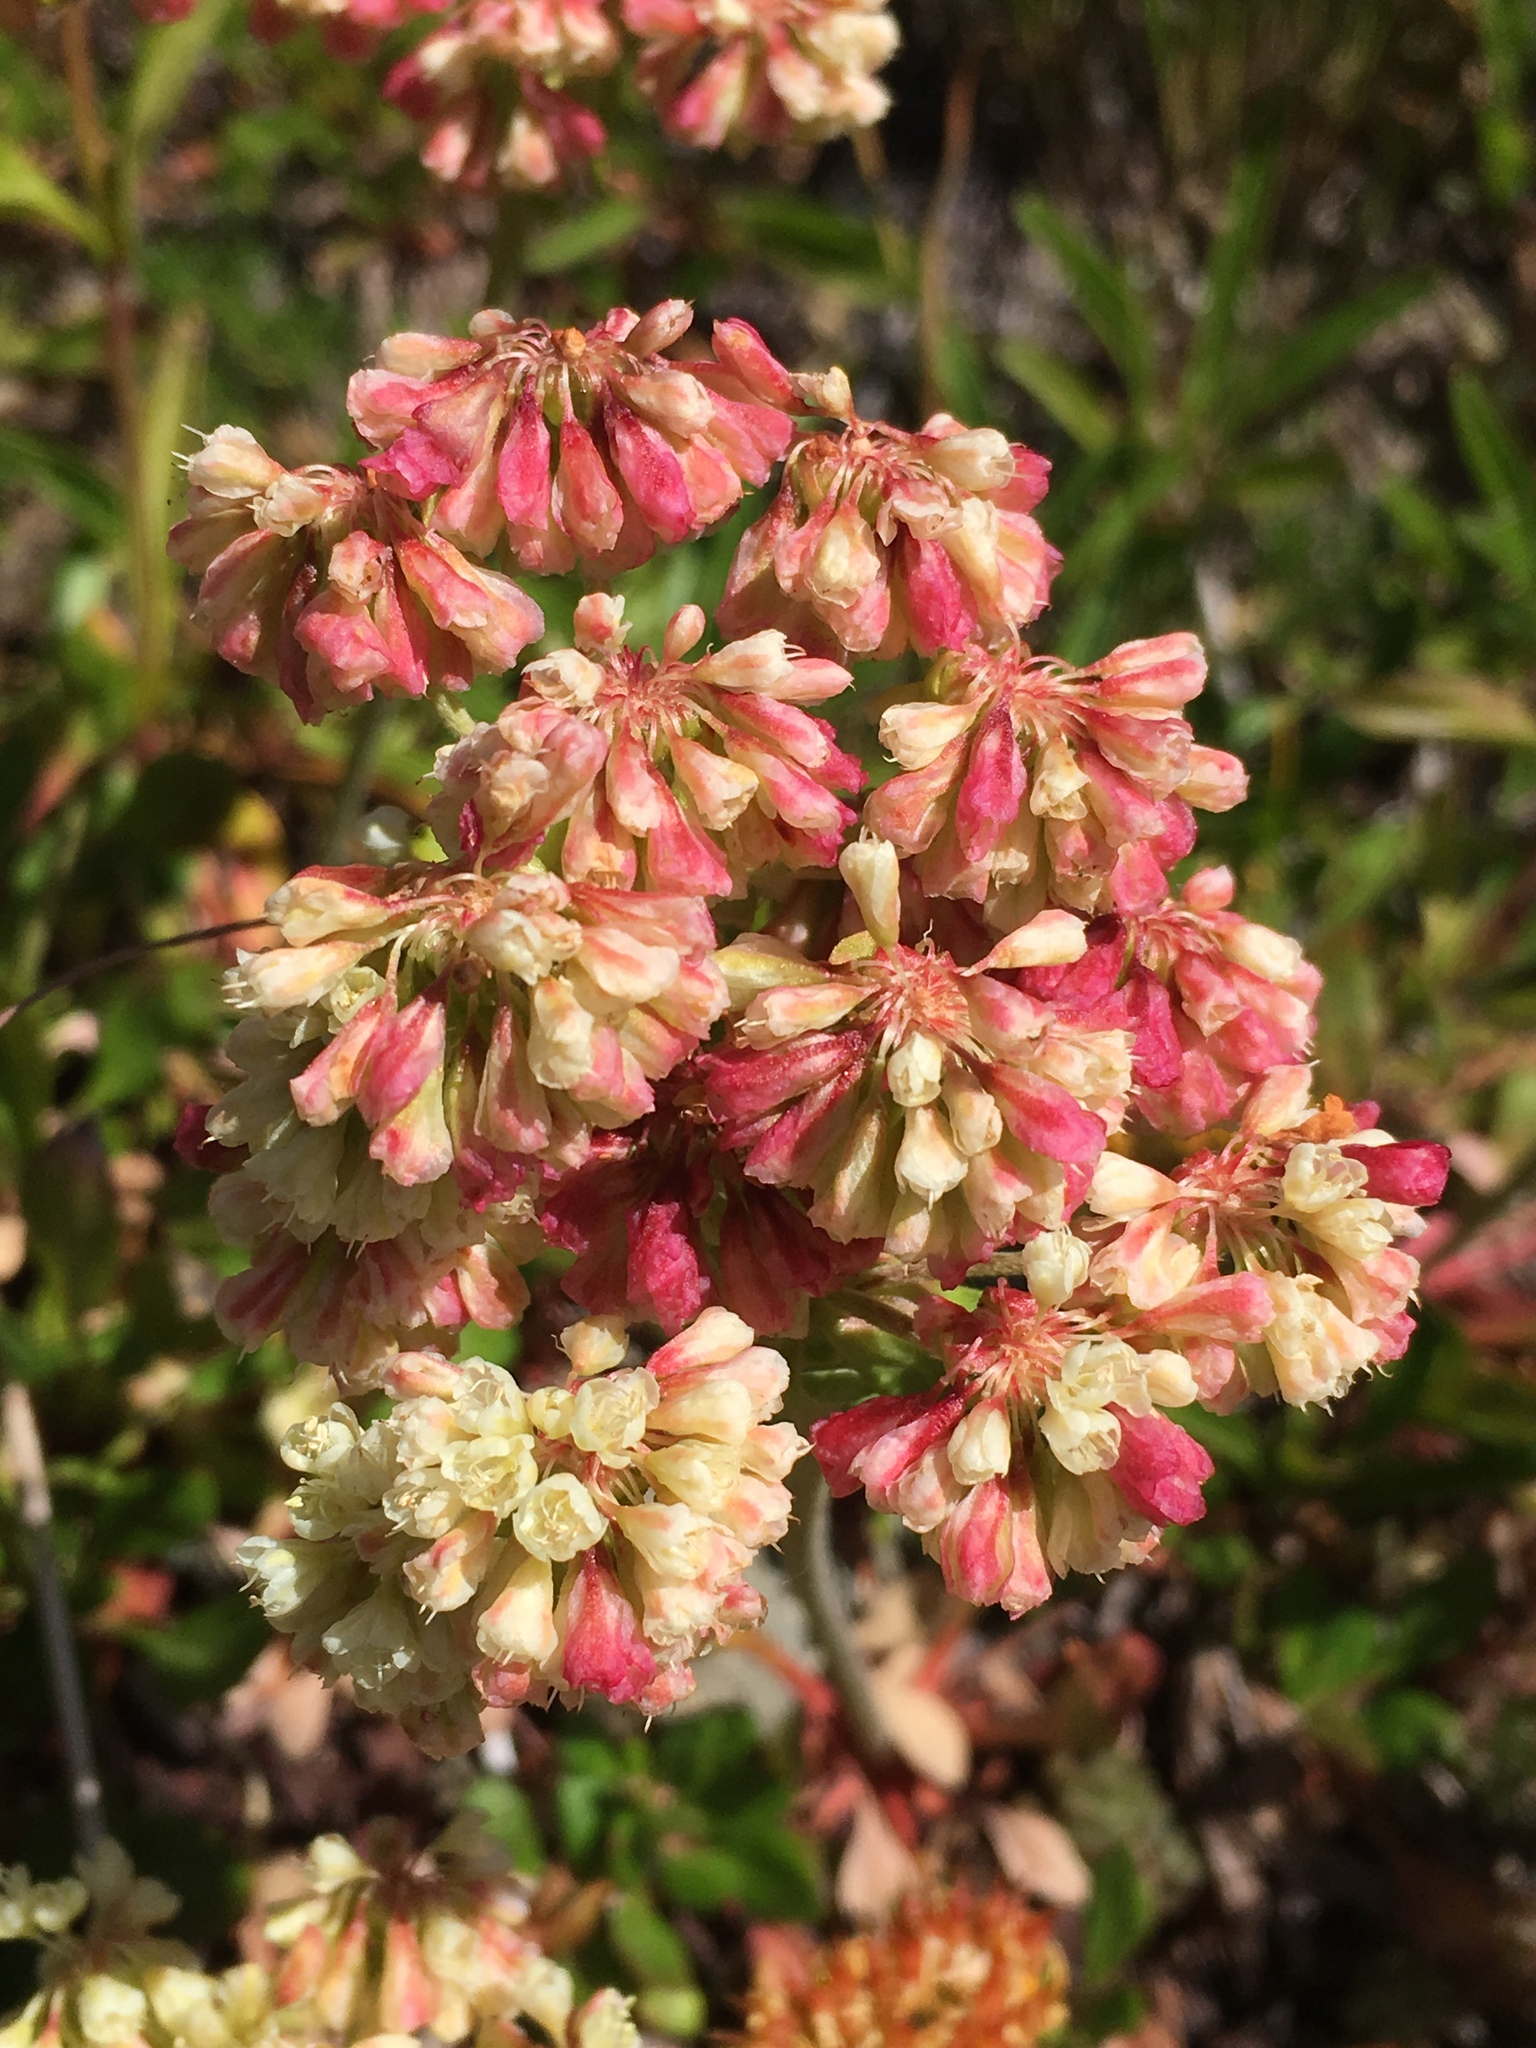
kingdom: Plantae
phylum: Tracheophyta
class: Magnoliopsida
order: Caryophyllales
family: Polygonaceae
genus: Eriogonum
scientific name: Eriogonum umbellatum
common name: Sulfur-buckwheat
